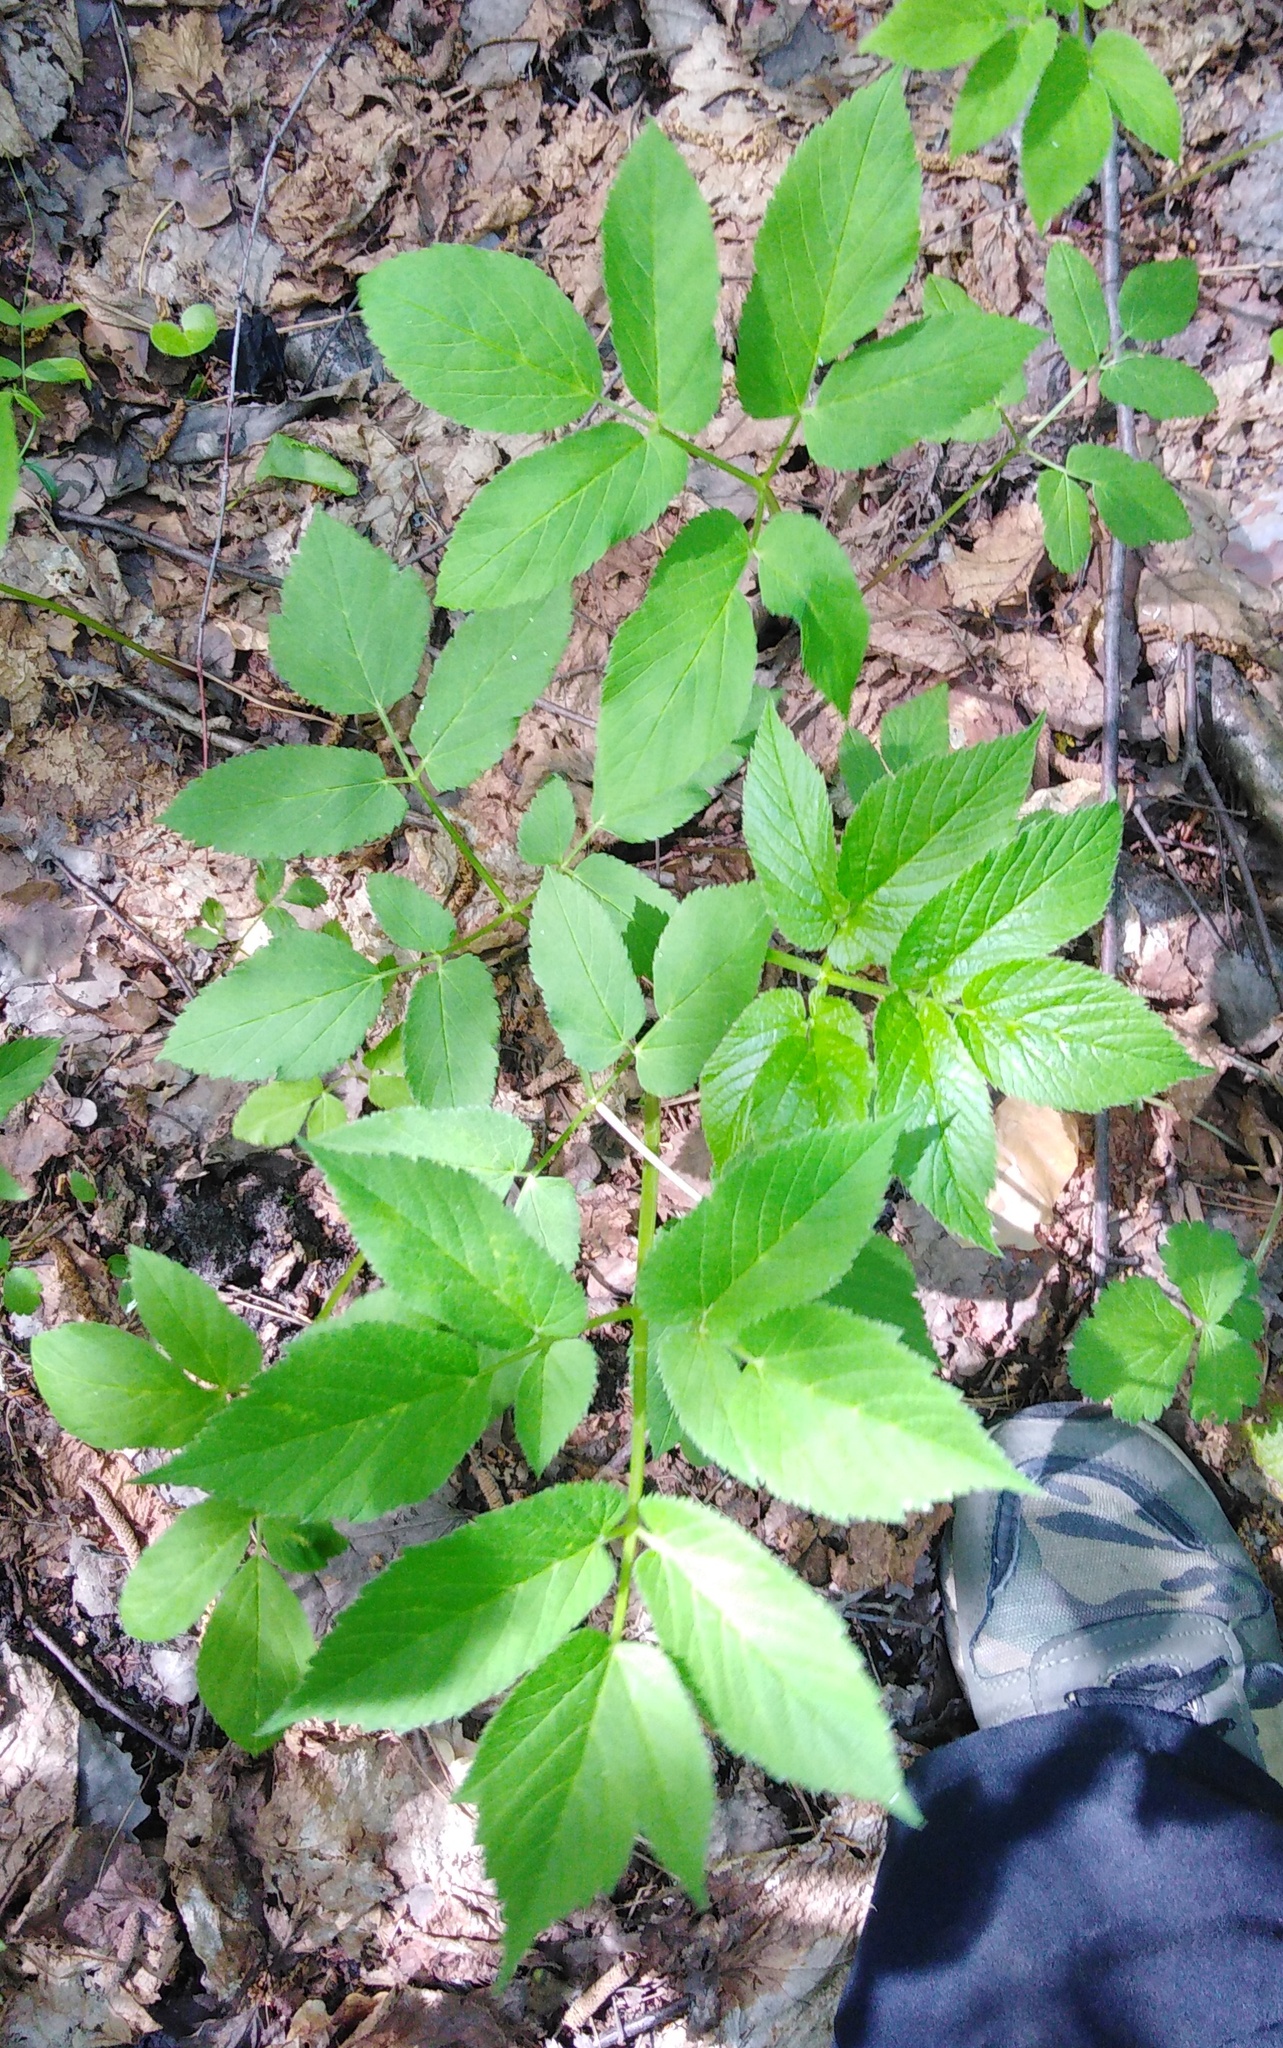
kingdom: Plantae
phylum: Tracheophyta
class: Magnoliopsida
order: Apiales
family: Apiaceae
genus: Aegopodium
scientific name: Aegopodium podagraria
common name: Ground-elder
